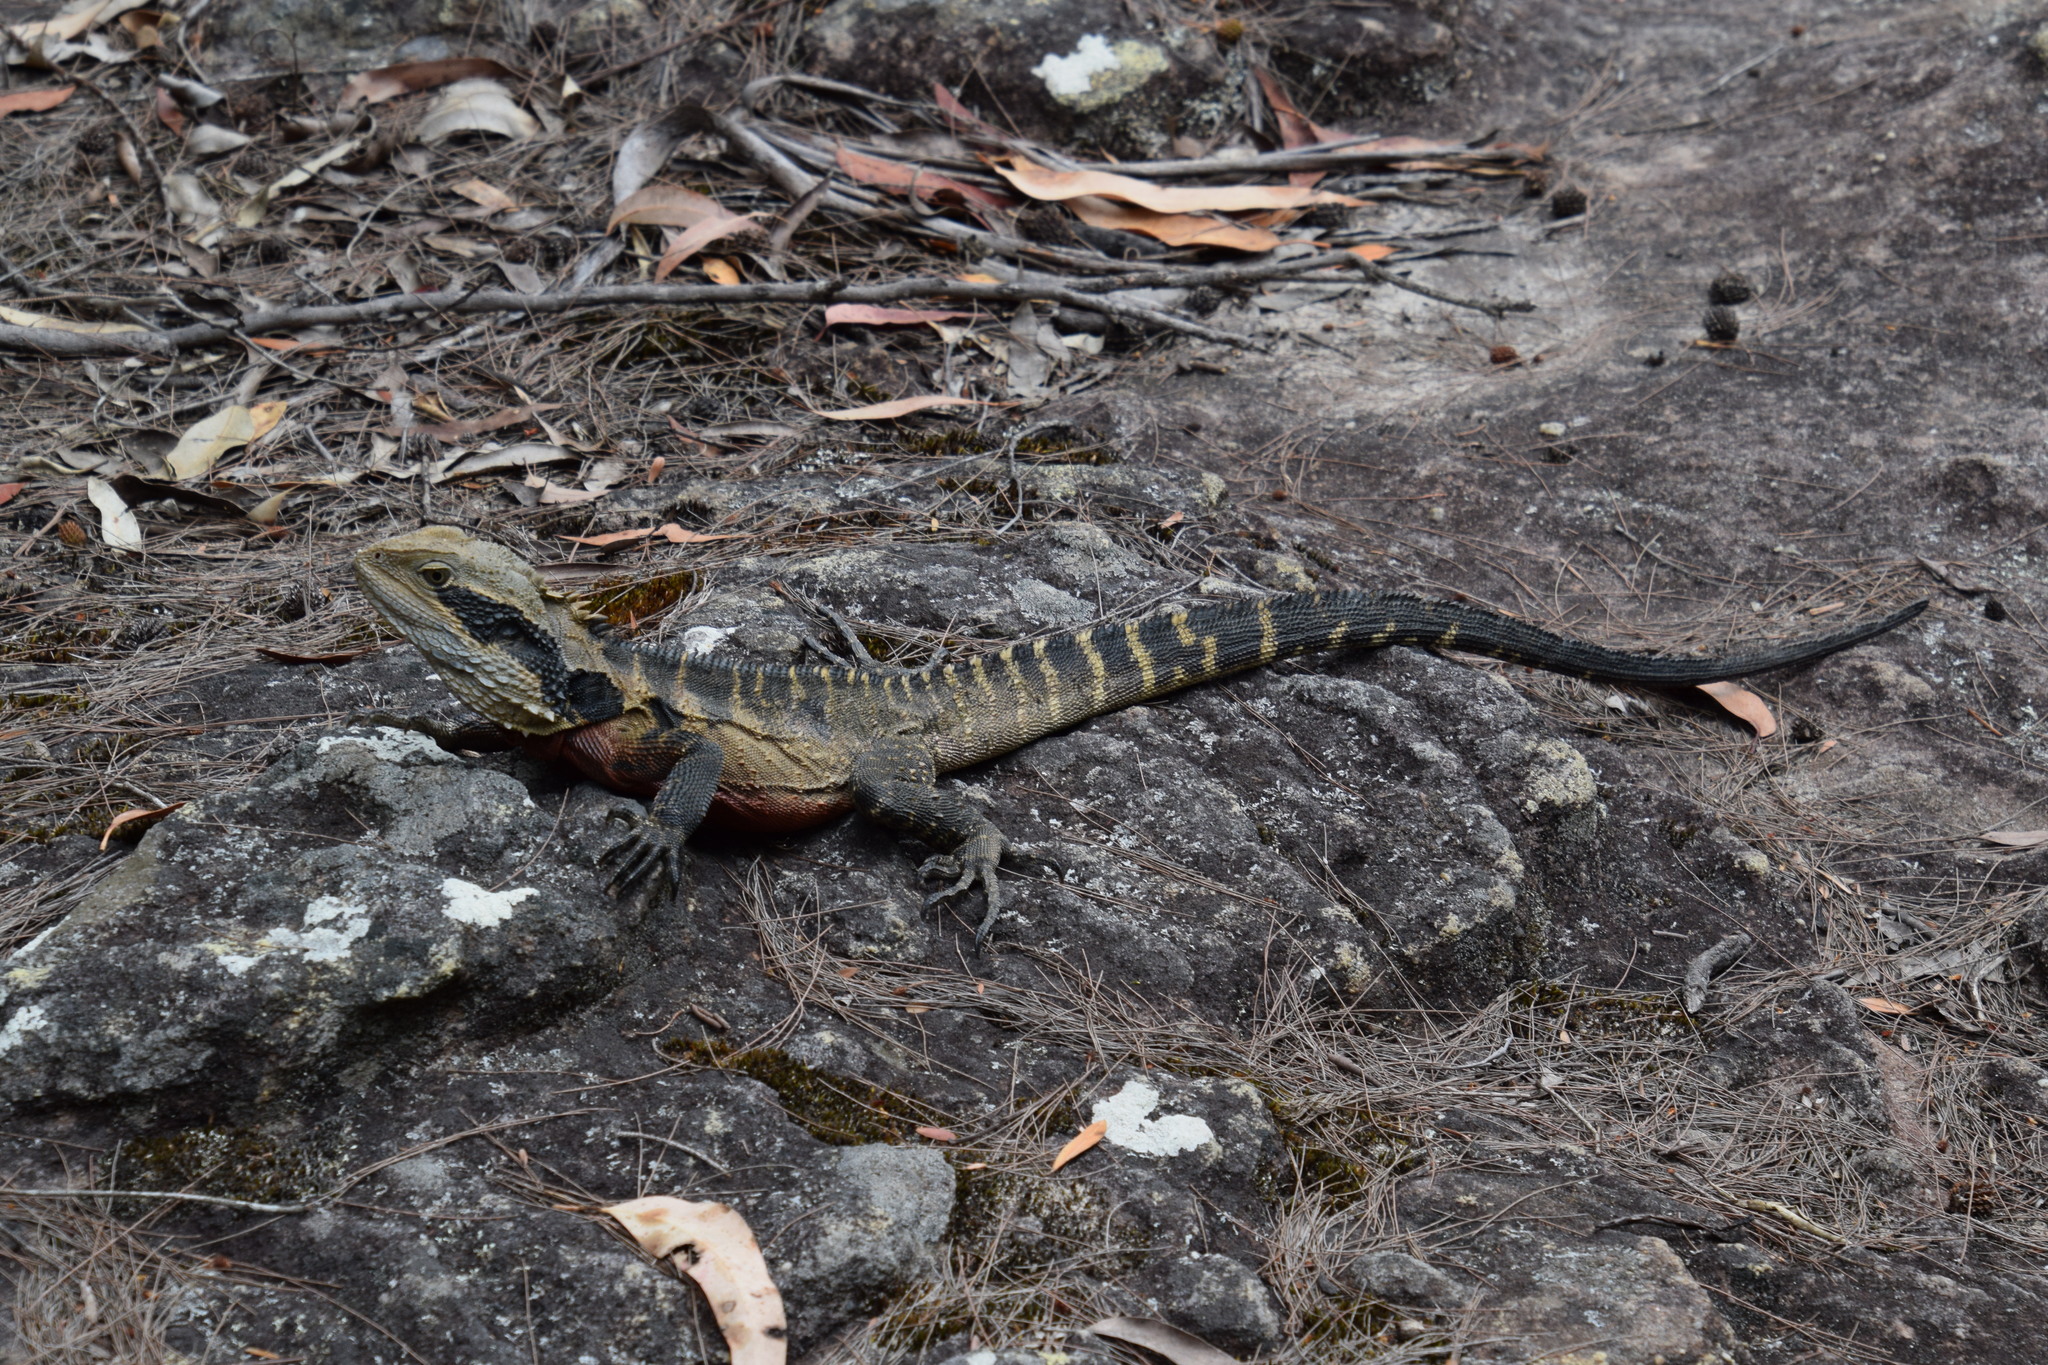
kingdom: Animalia
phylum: Chordata
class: Squamata
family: Agamidae
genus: Intellagama
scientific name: Intellagama lesueurii
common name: Eastern water dragon
